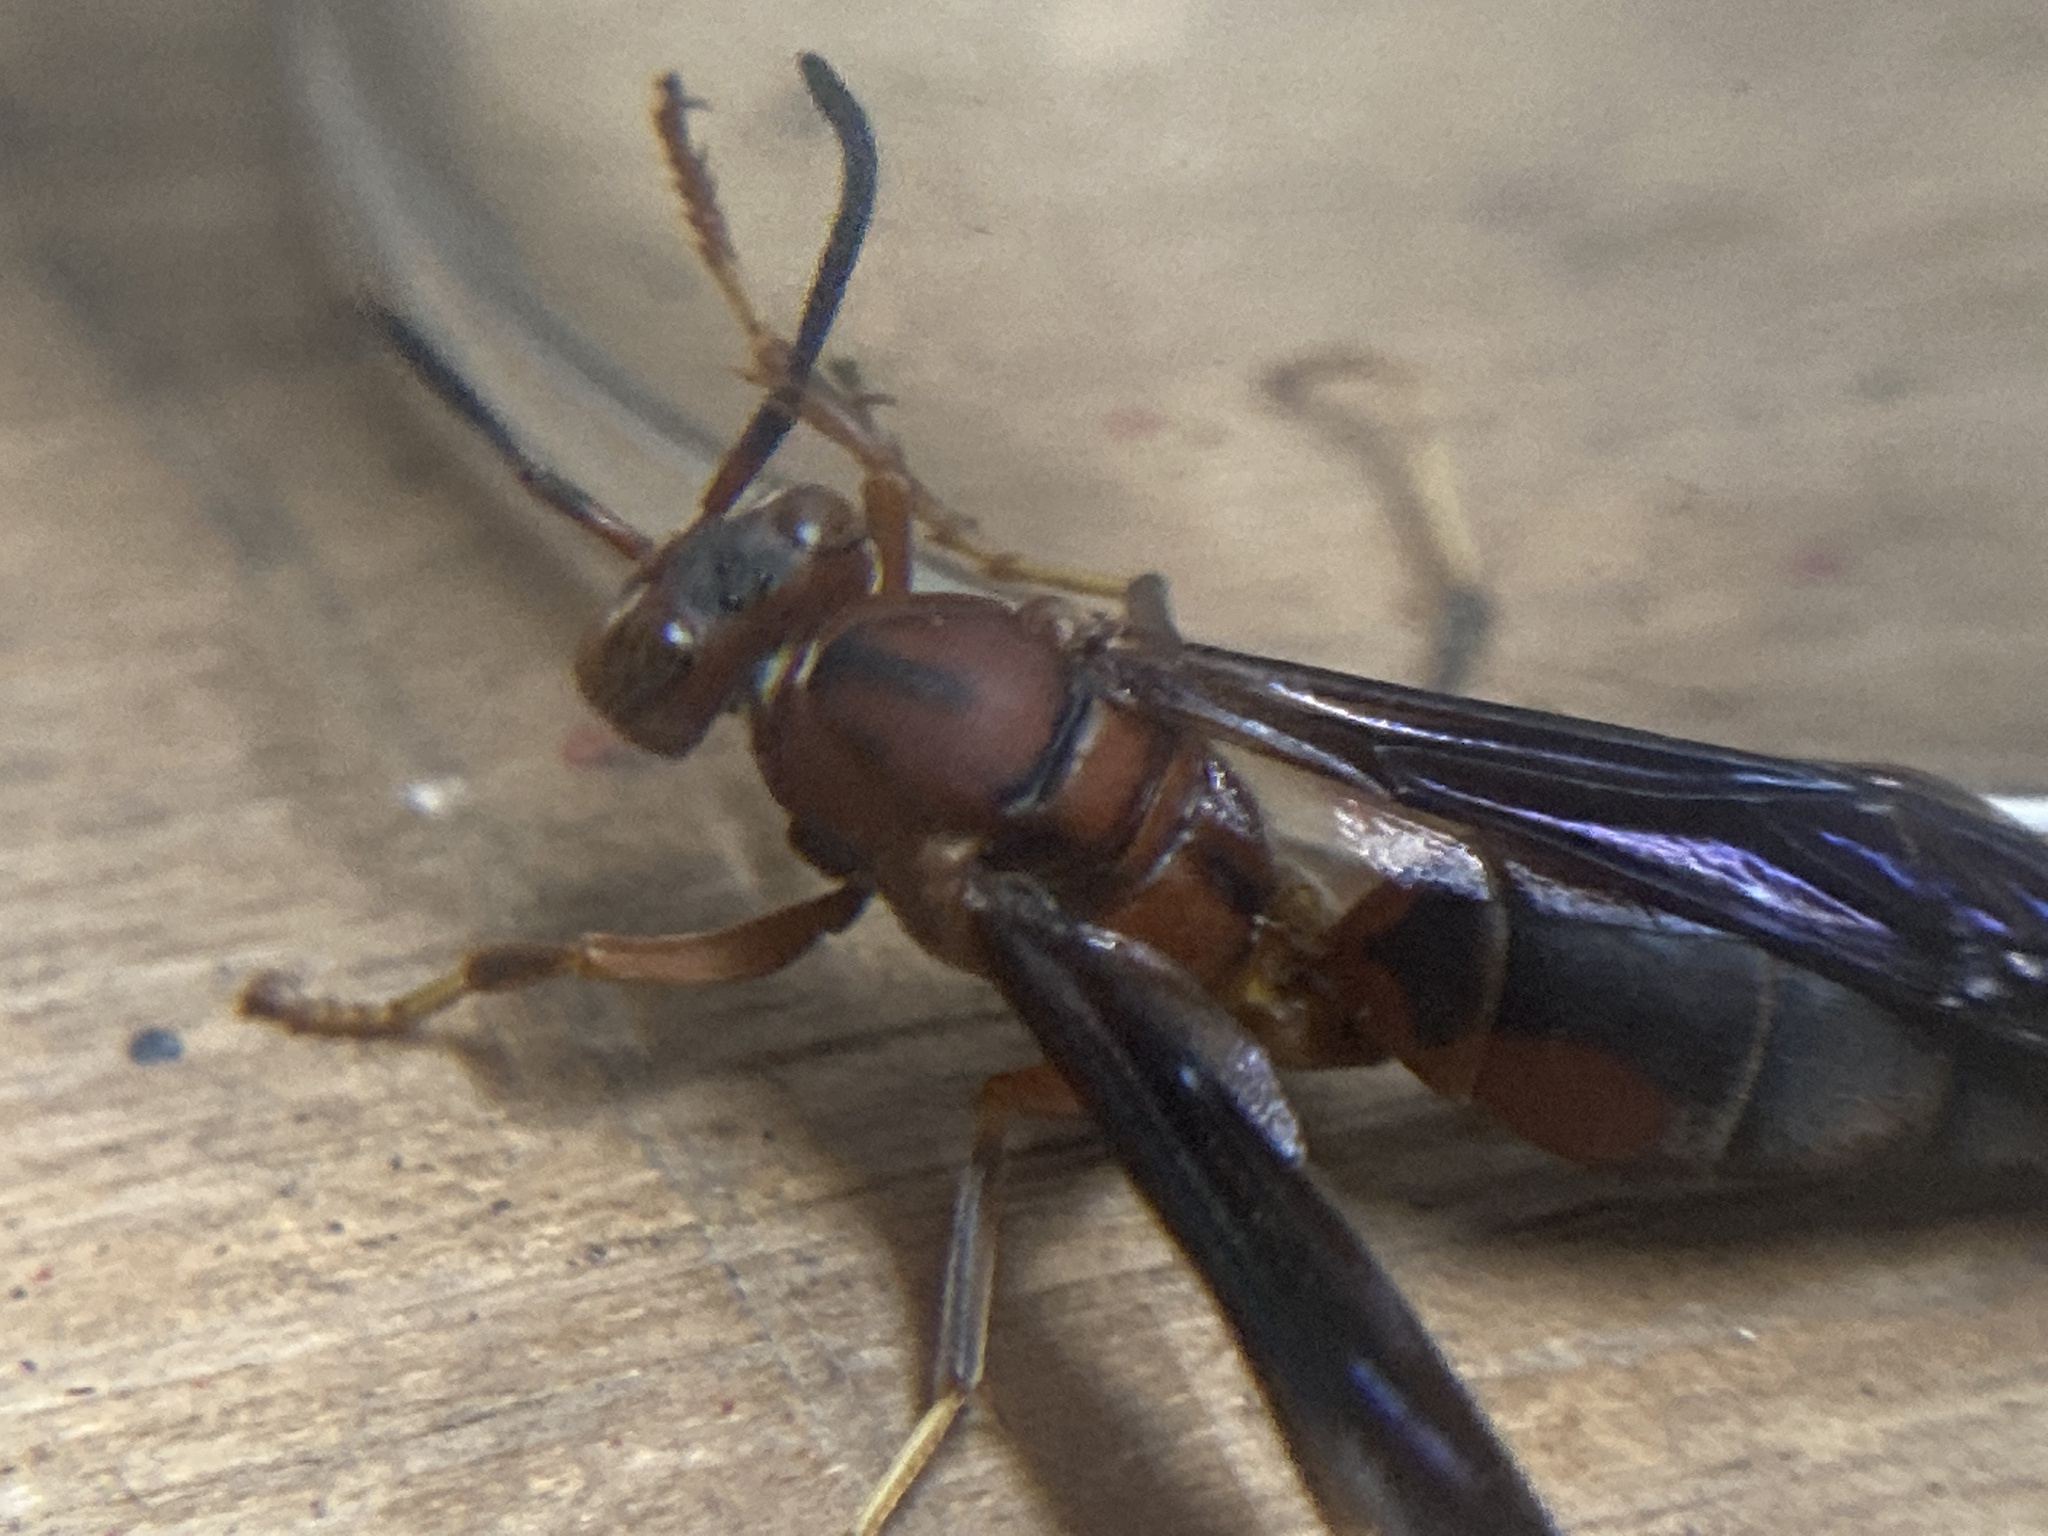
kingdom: Animalia
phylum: Arthropoda
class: Insecta
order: Hymenoptera
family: Eumenidae
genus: Polistes
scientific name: Polistes metricus
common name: Metric paper wasp
